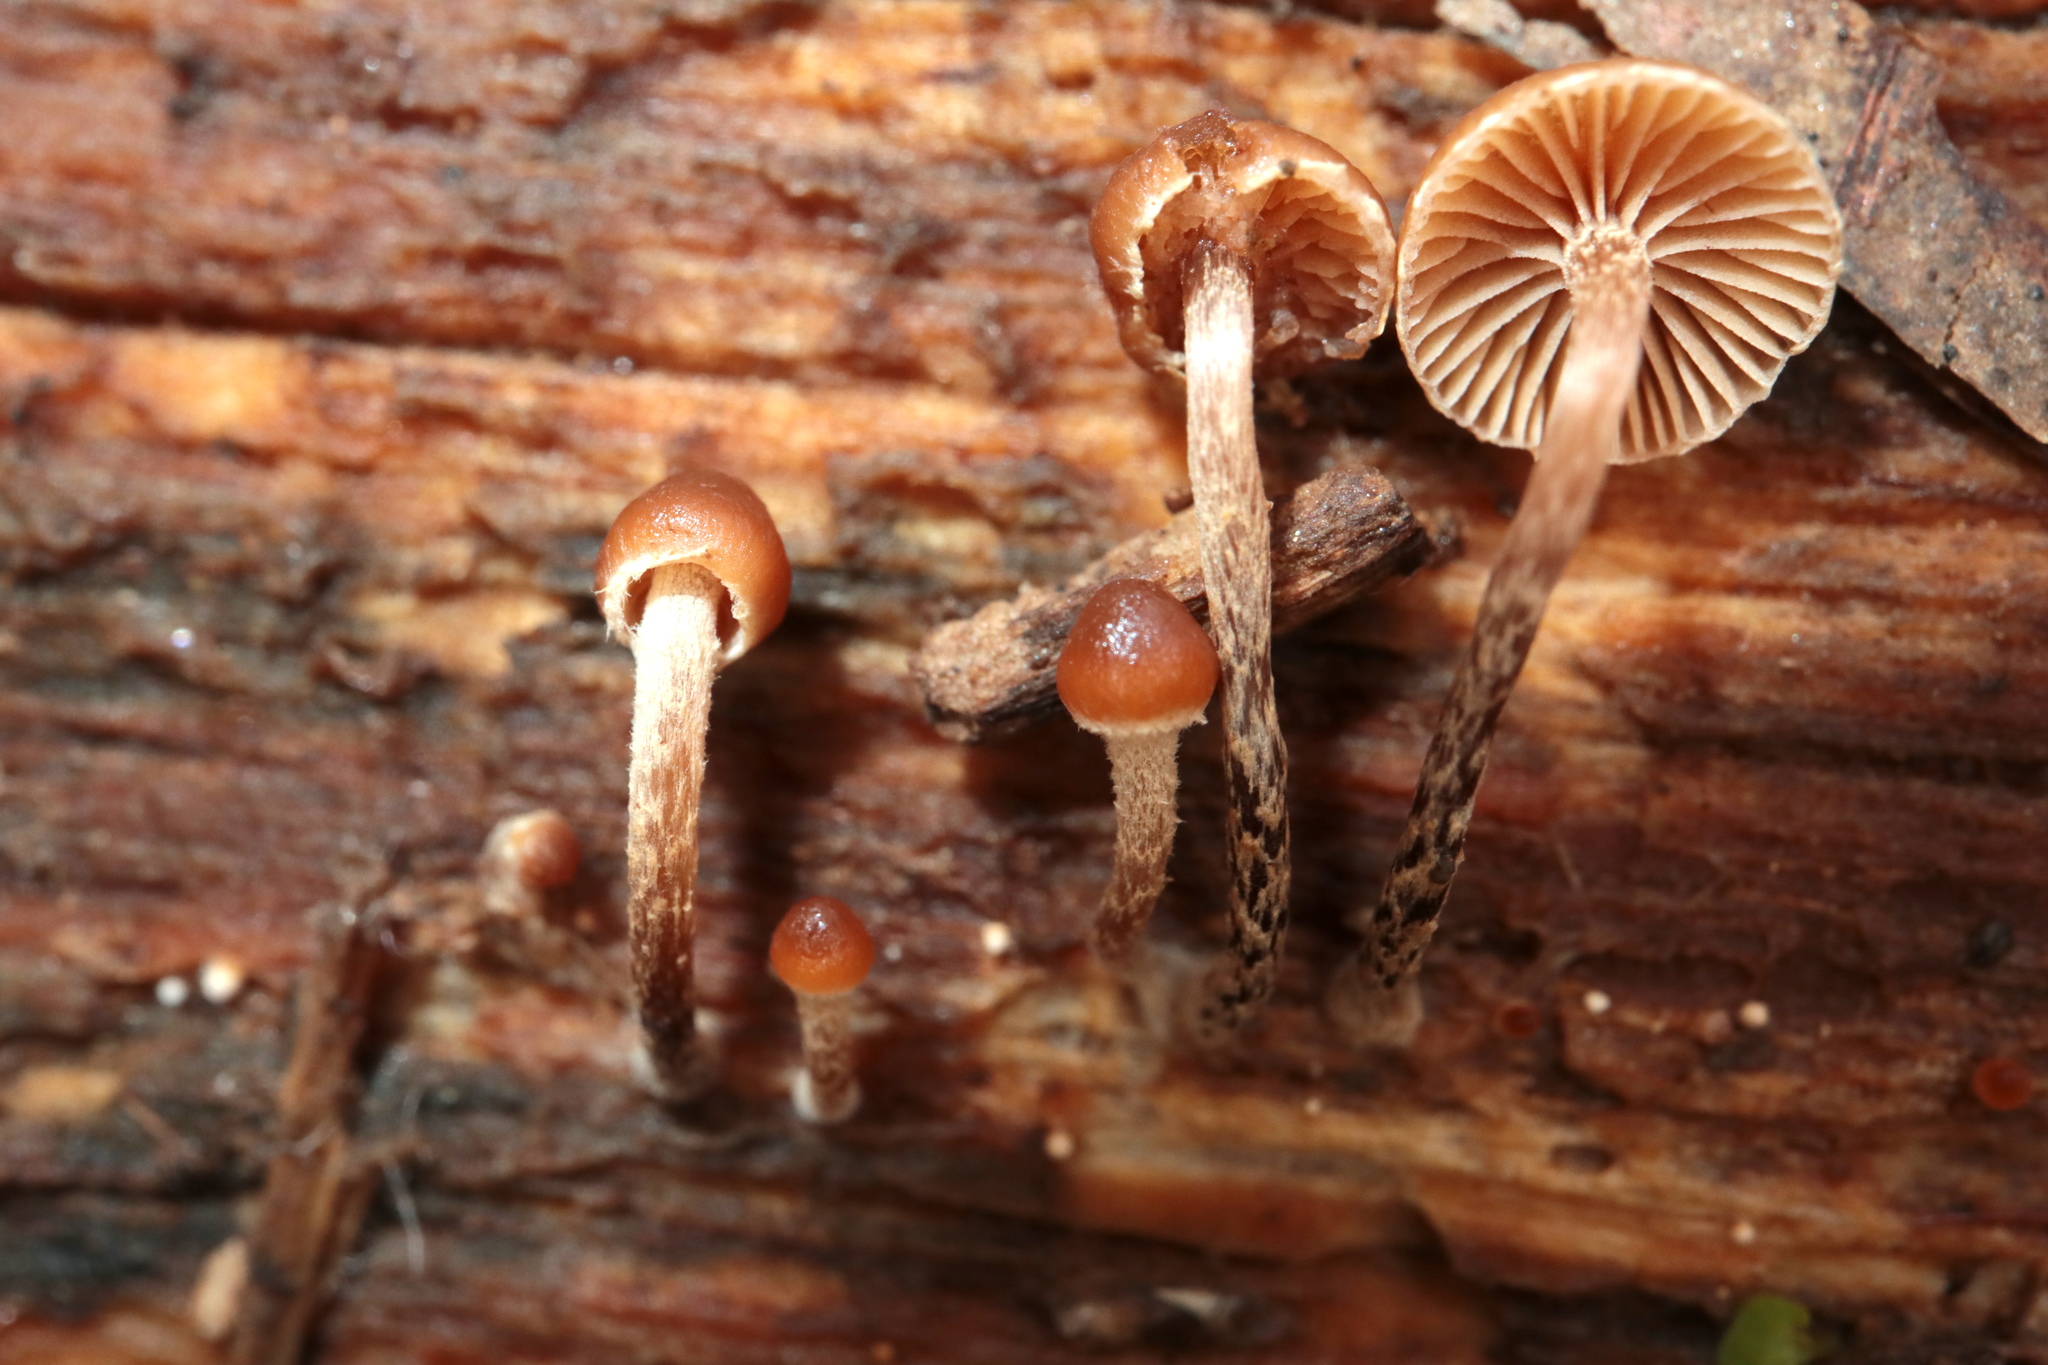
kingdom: Fungi
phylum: Basidiomycota
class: Agaricomycetes
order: Agaricales
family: Hymenogastraceae
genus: Galerina
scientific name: Galerina marginata
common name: Funeral bell
